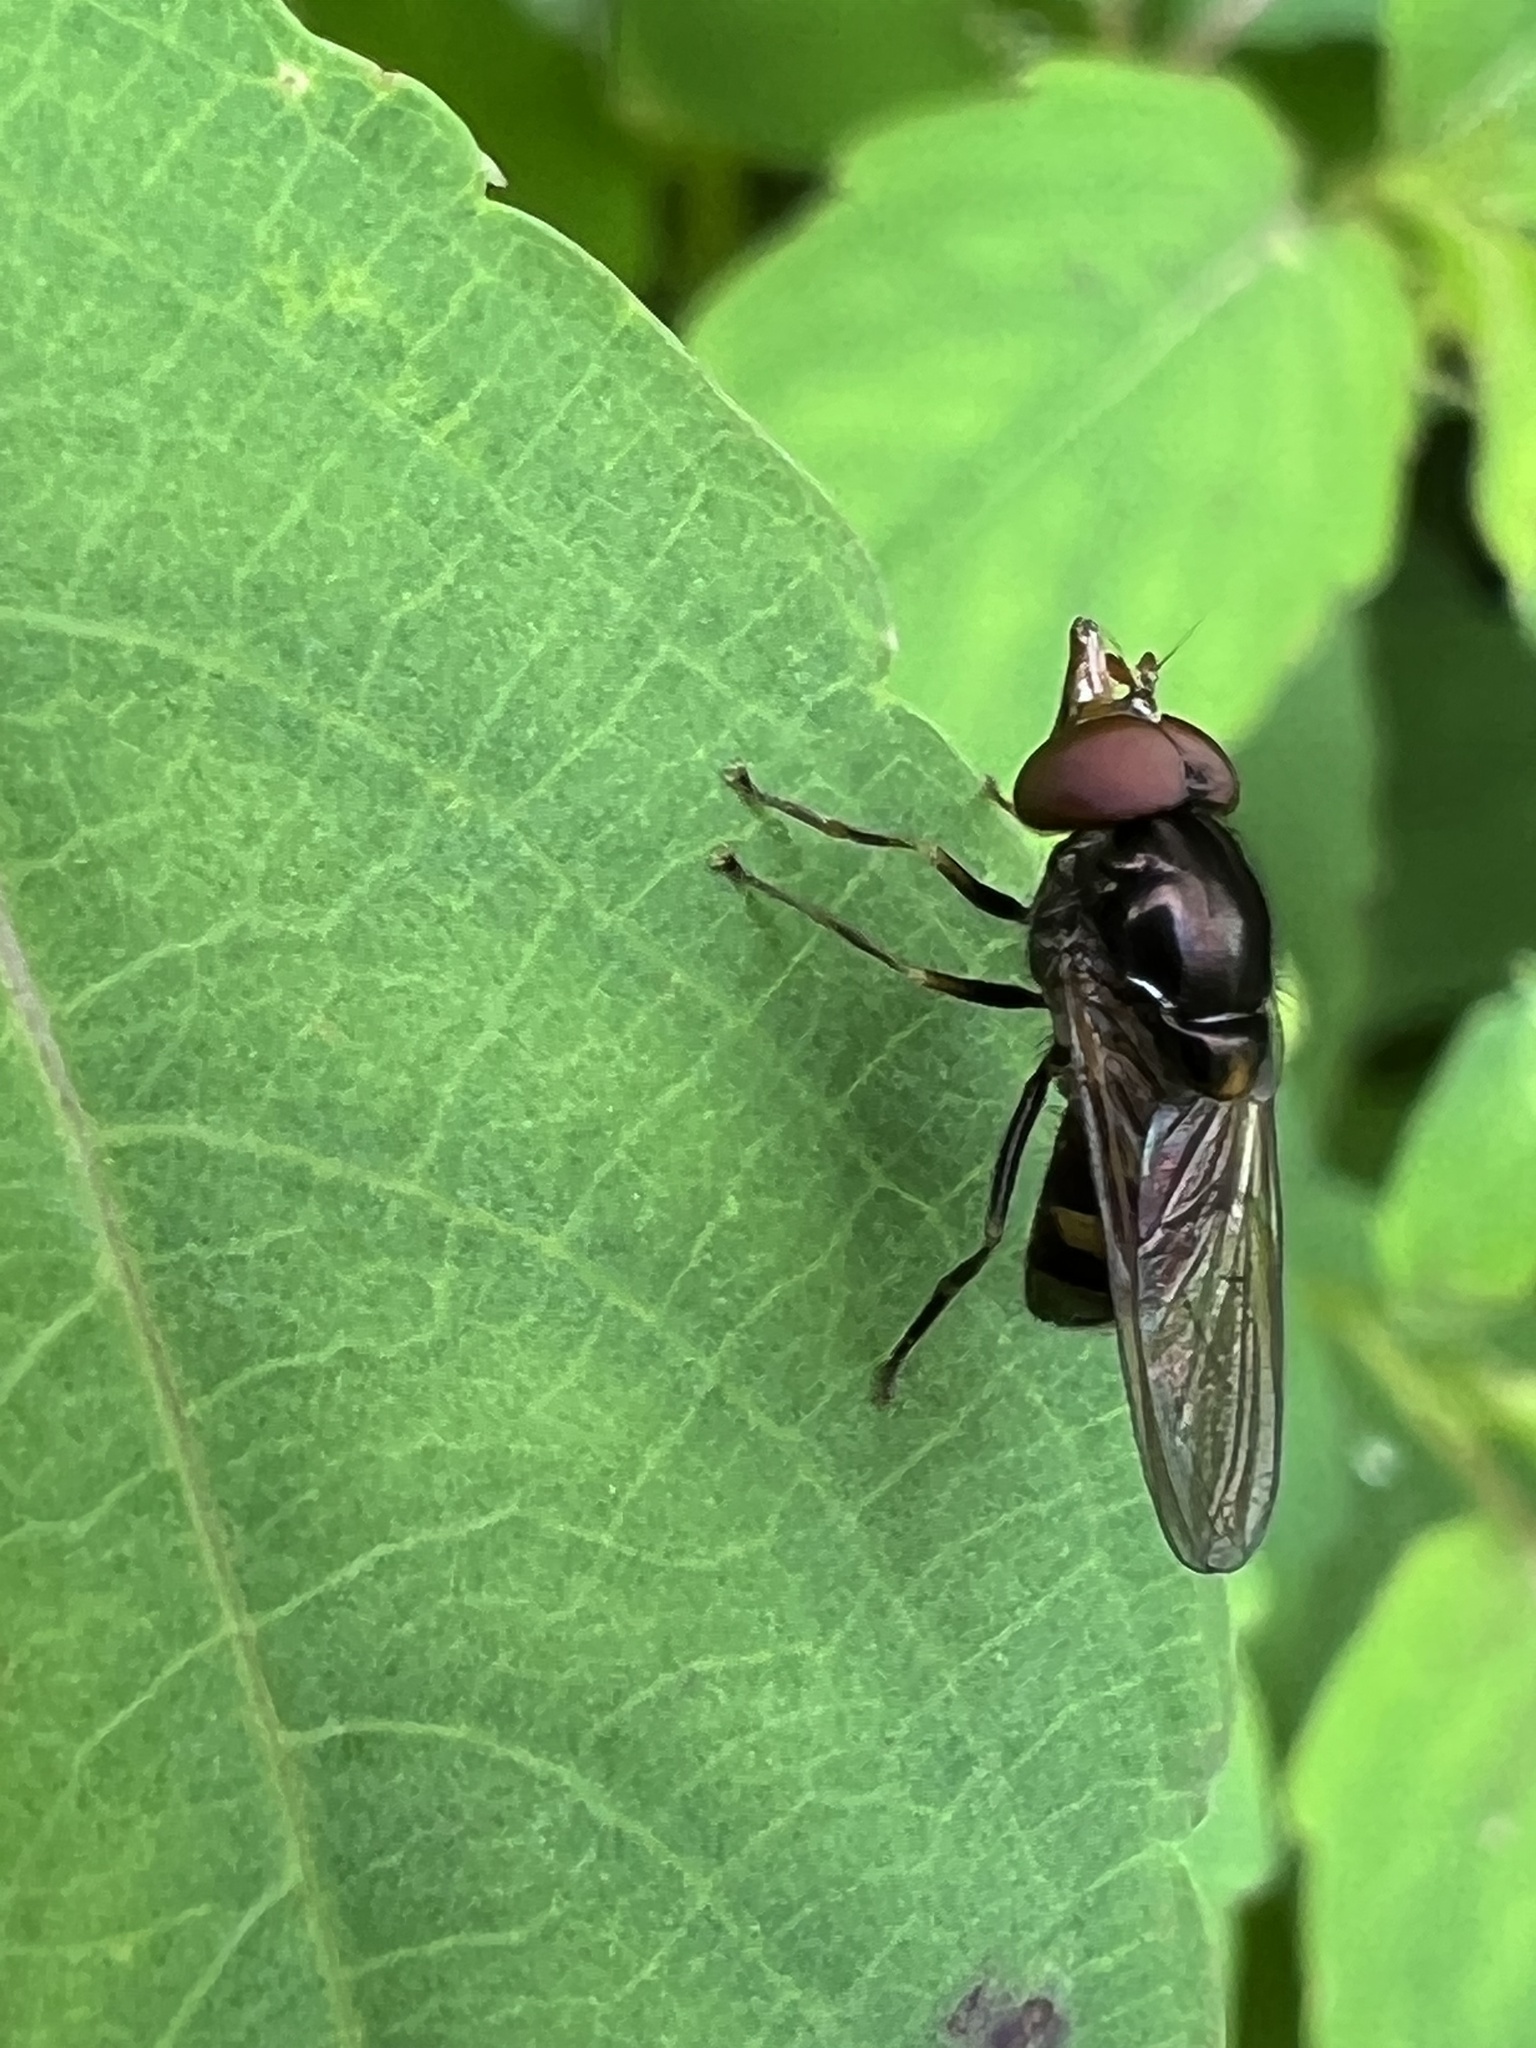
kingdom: Animalia
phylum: Arthropoda
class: Insecta
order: Diptera
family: Syrphidae
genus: Rhingia
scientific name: Rhingia nasica
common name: American snout fly
